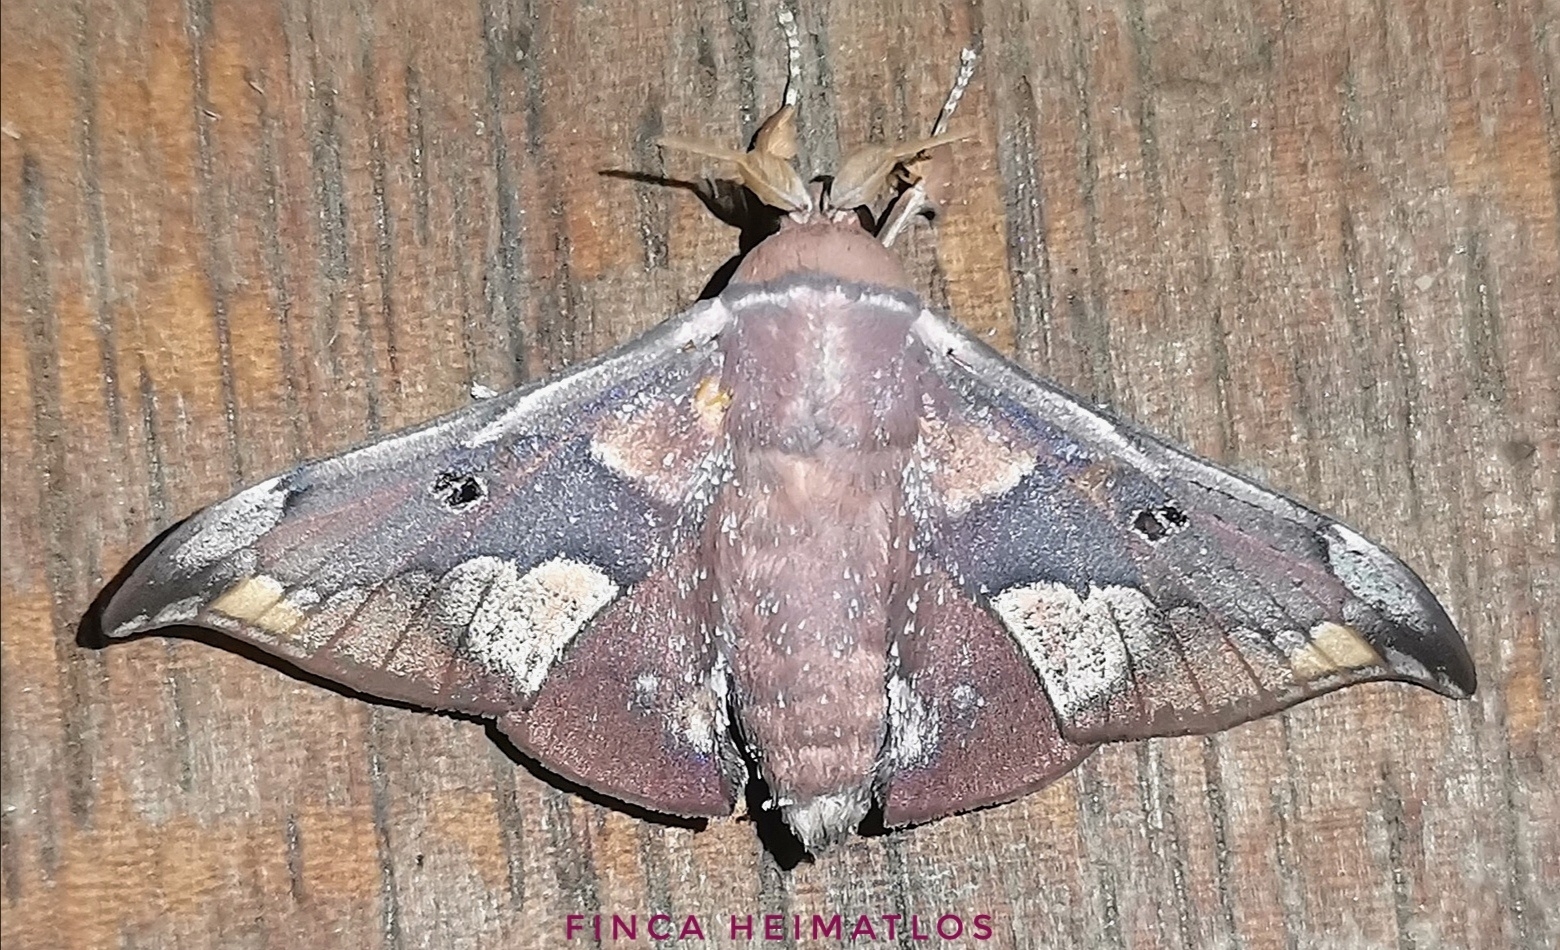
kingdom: Animalia
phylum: Arthropoda
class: Insecta
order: Lepidoptera
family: Mimallonidae
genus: Roelmana
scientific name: Roelmana maloba
